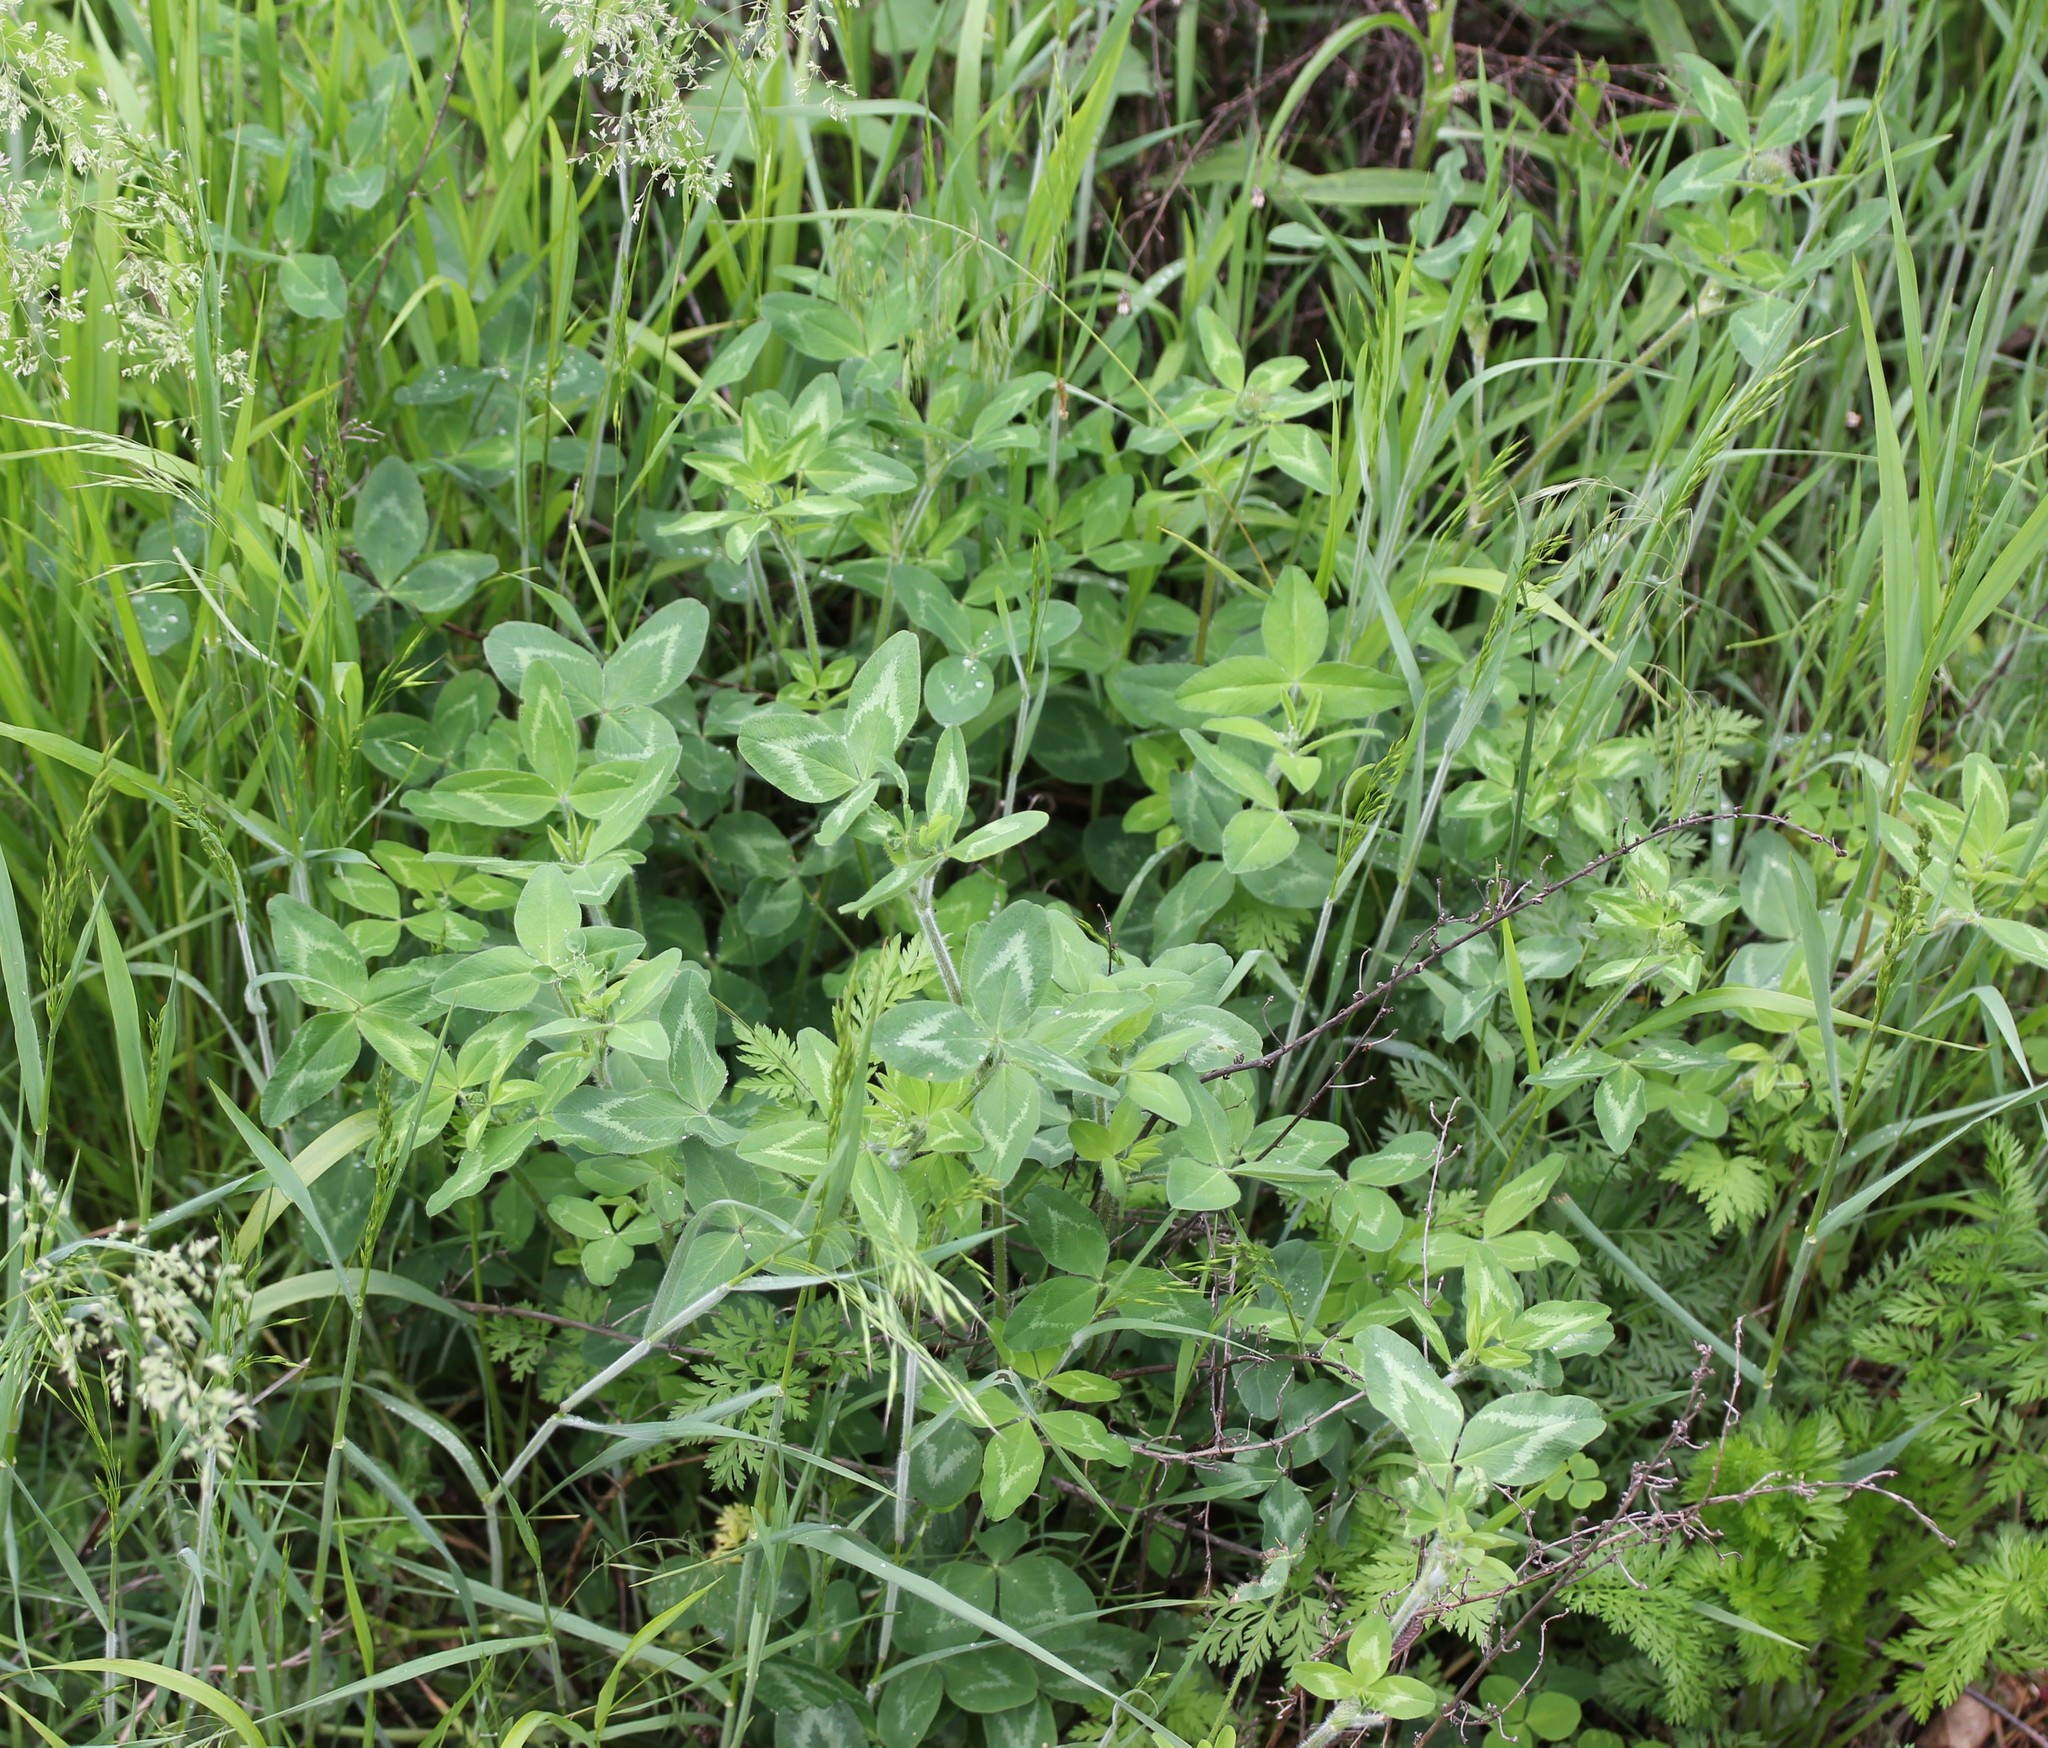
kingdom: Plantae
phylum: Tracheophyta
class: Magnoliopsida
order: Fabales
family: Fabaceae
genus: Trifolium
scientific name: Trifolium pratense
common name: Red clover
